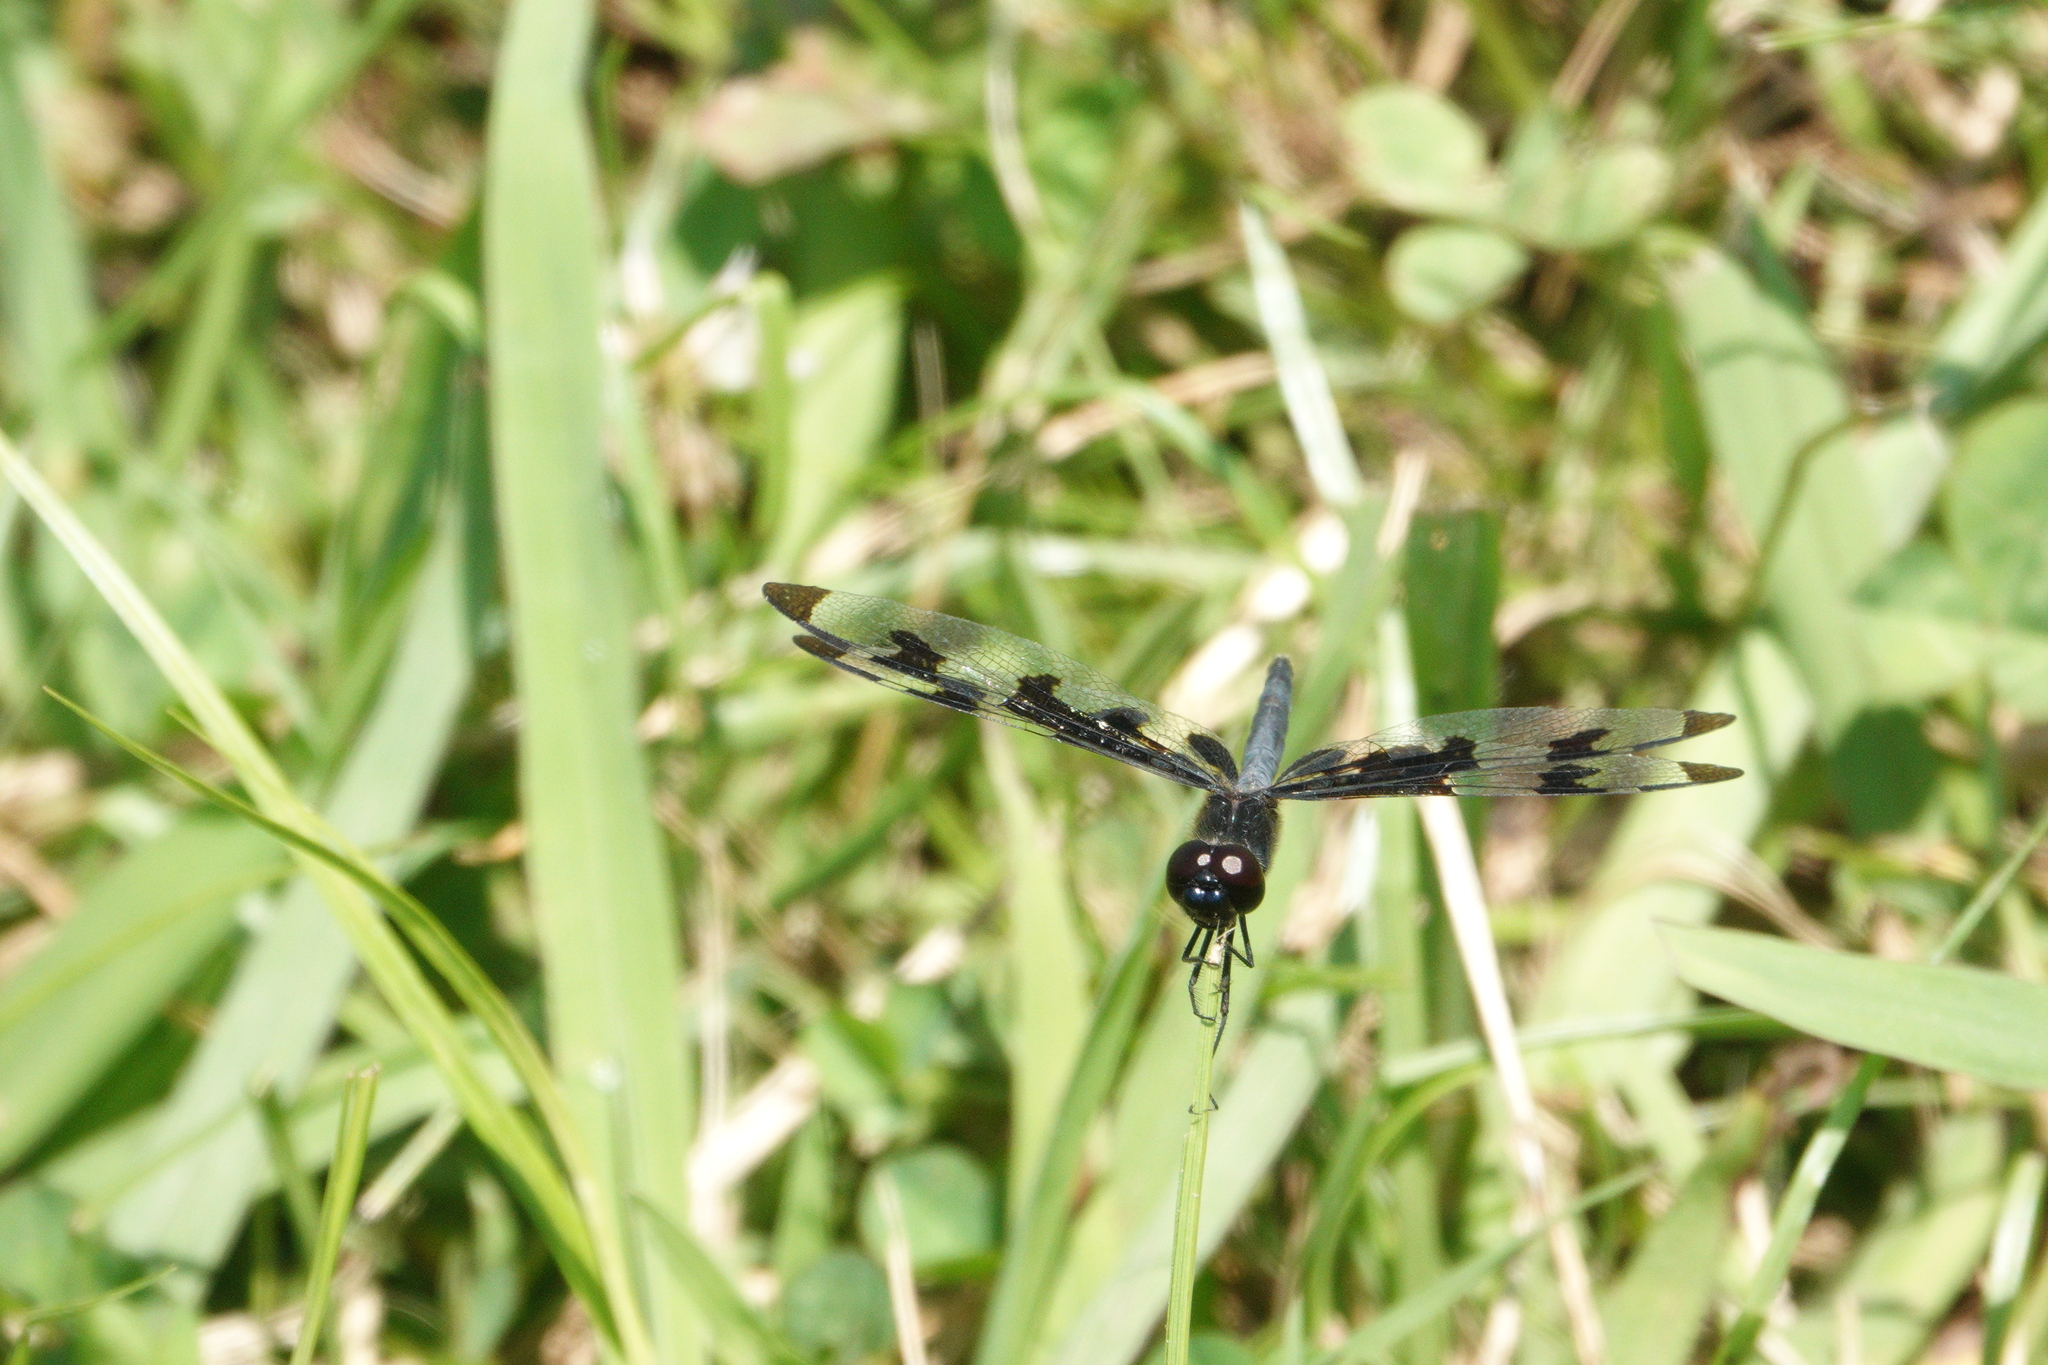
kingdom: Animalia
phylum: Arthropoda
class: Insecta
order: Odonata
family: Libellulidae
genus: Celithemis
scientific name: Celithemis fasciata
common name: Banded pennant
